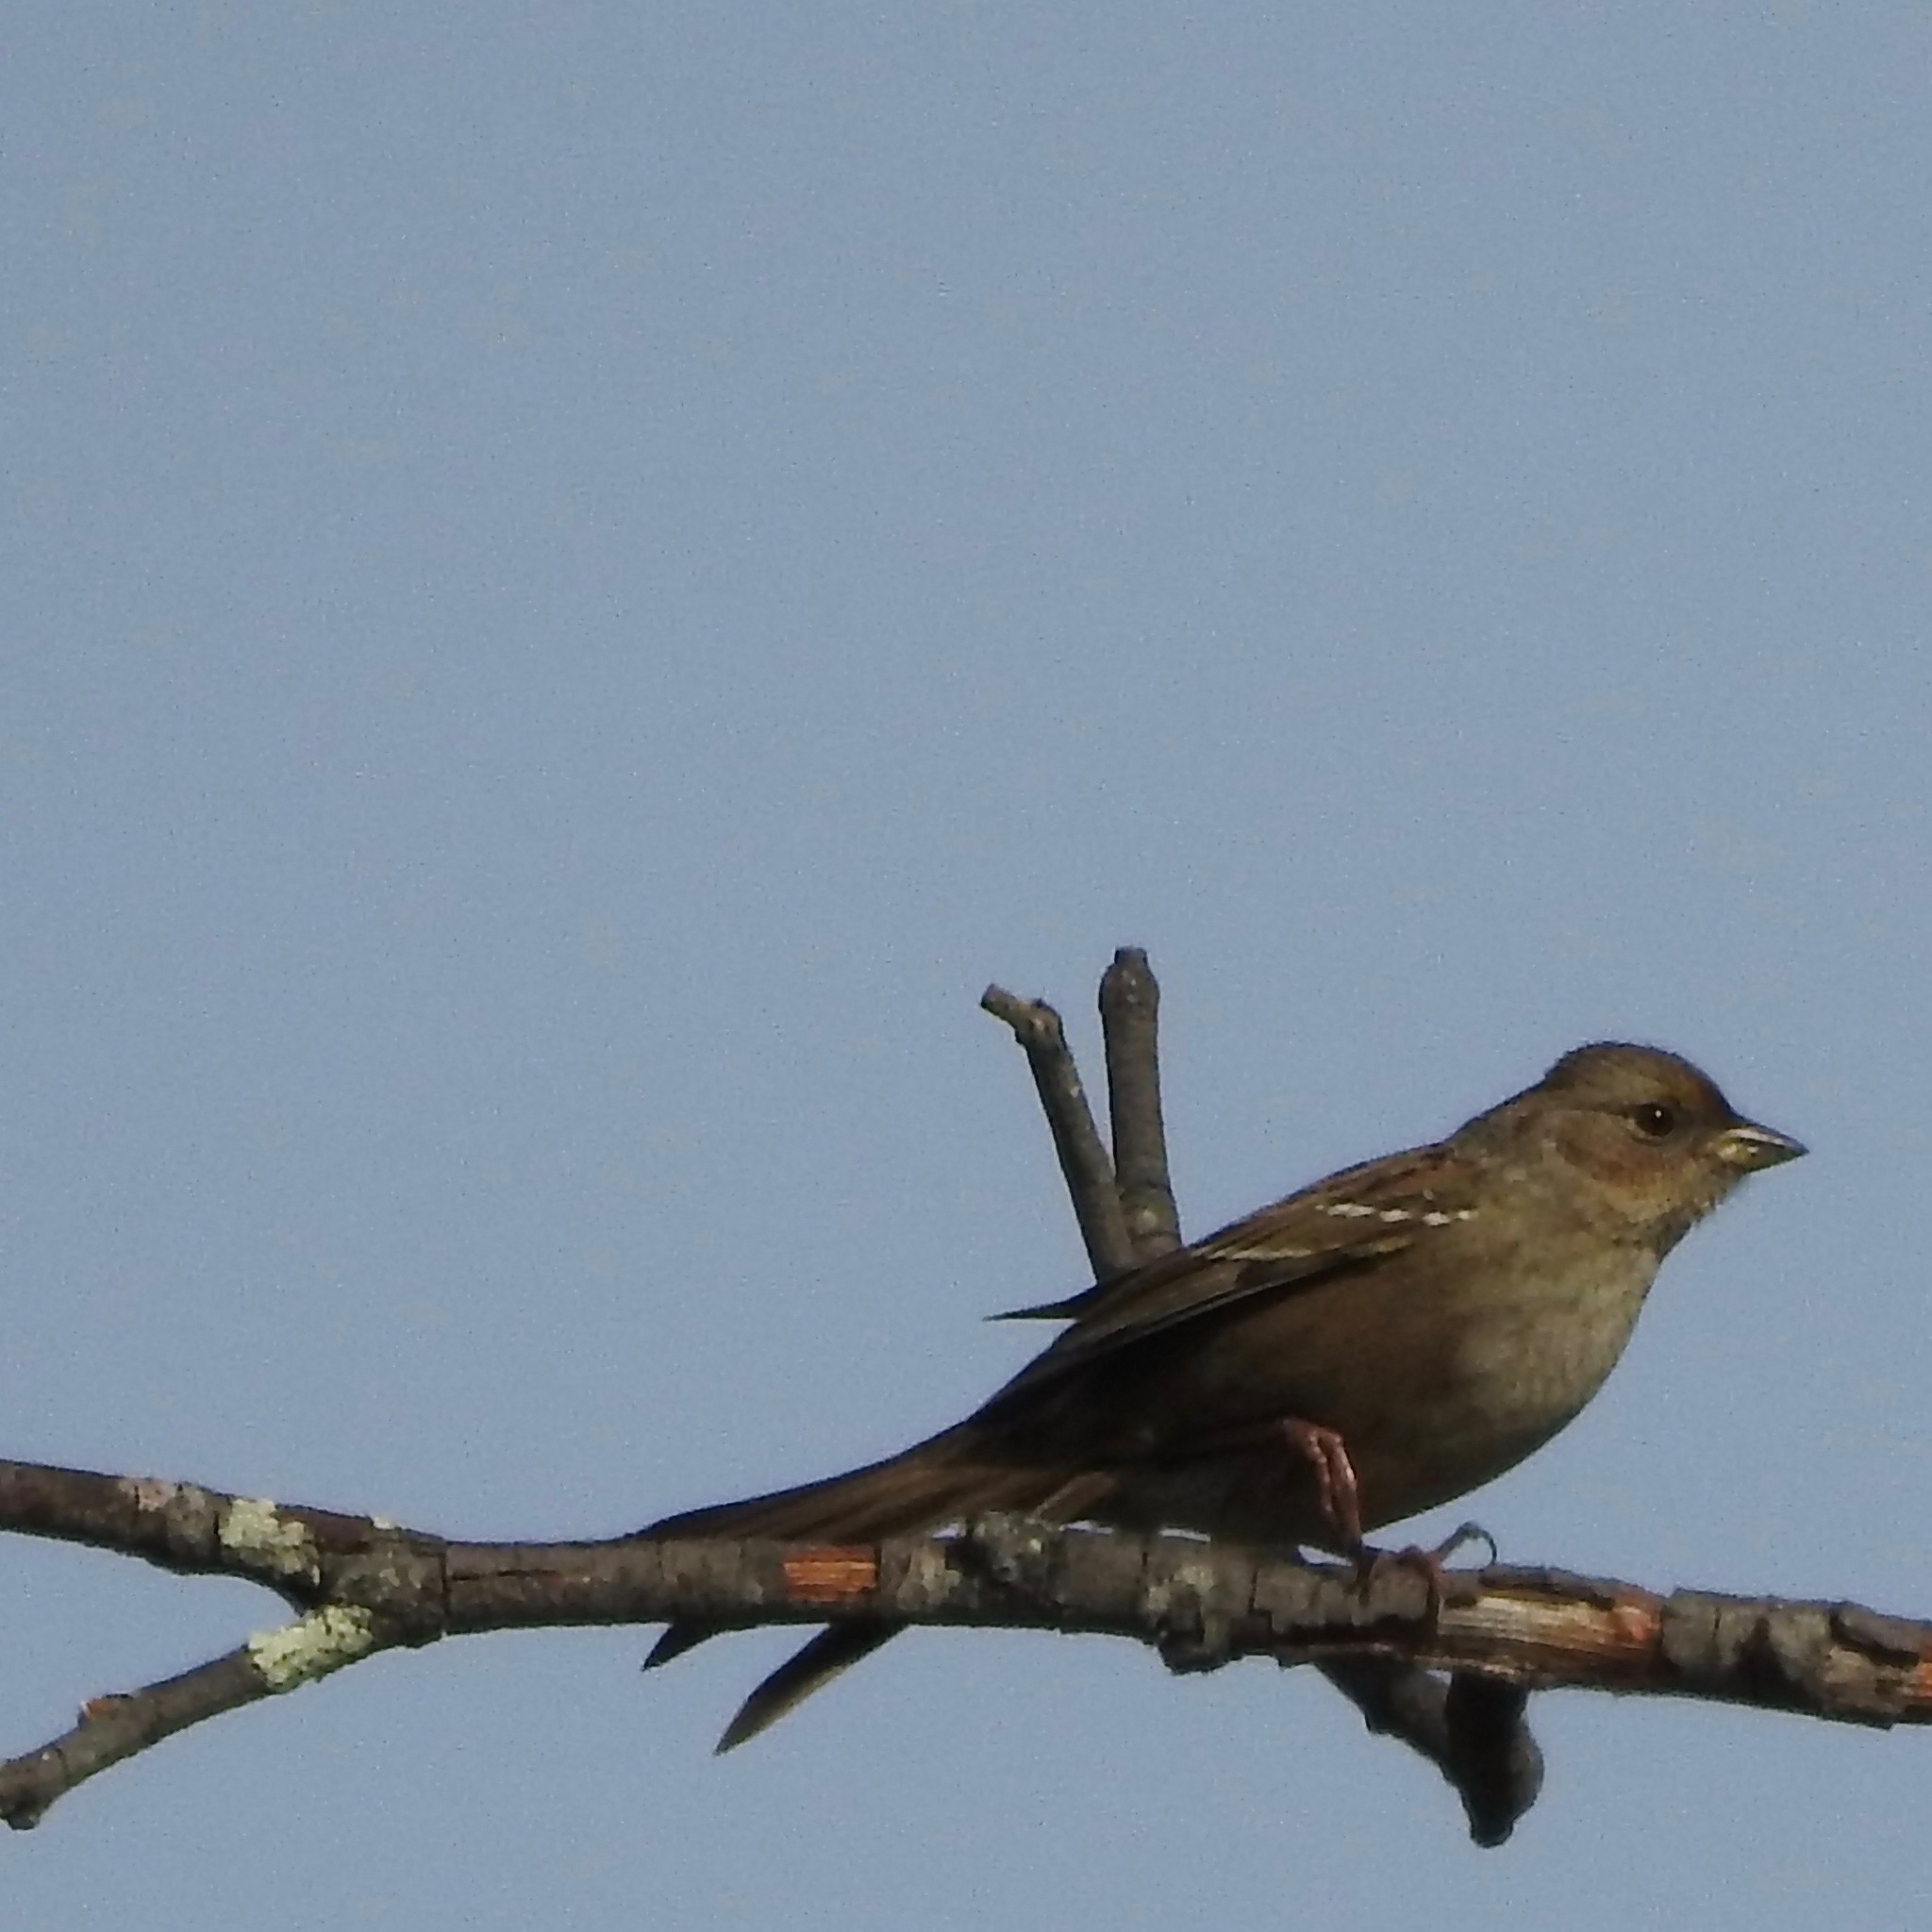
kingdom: Animalia
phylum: Chordata
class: Aves
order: Passeriformes
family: Passerellidae
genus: Zonotrichia
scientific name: Zonotrichia atricapilla
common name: Golden-crowned sparrow
